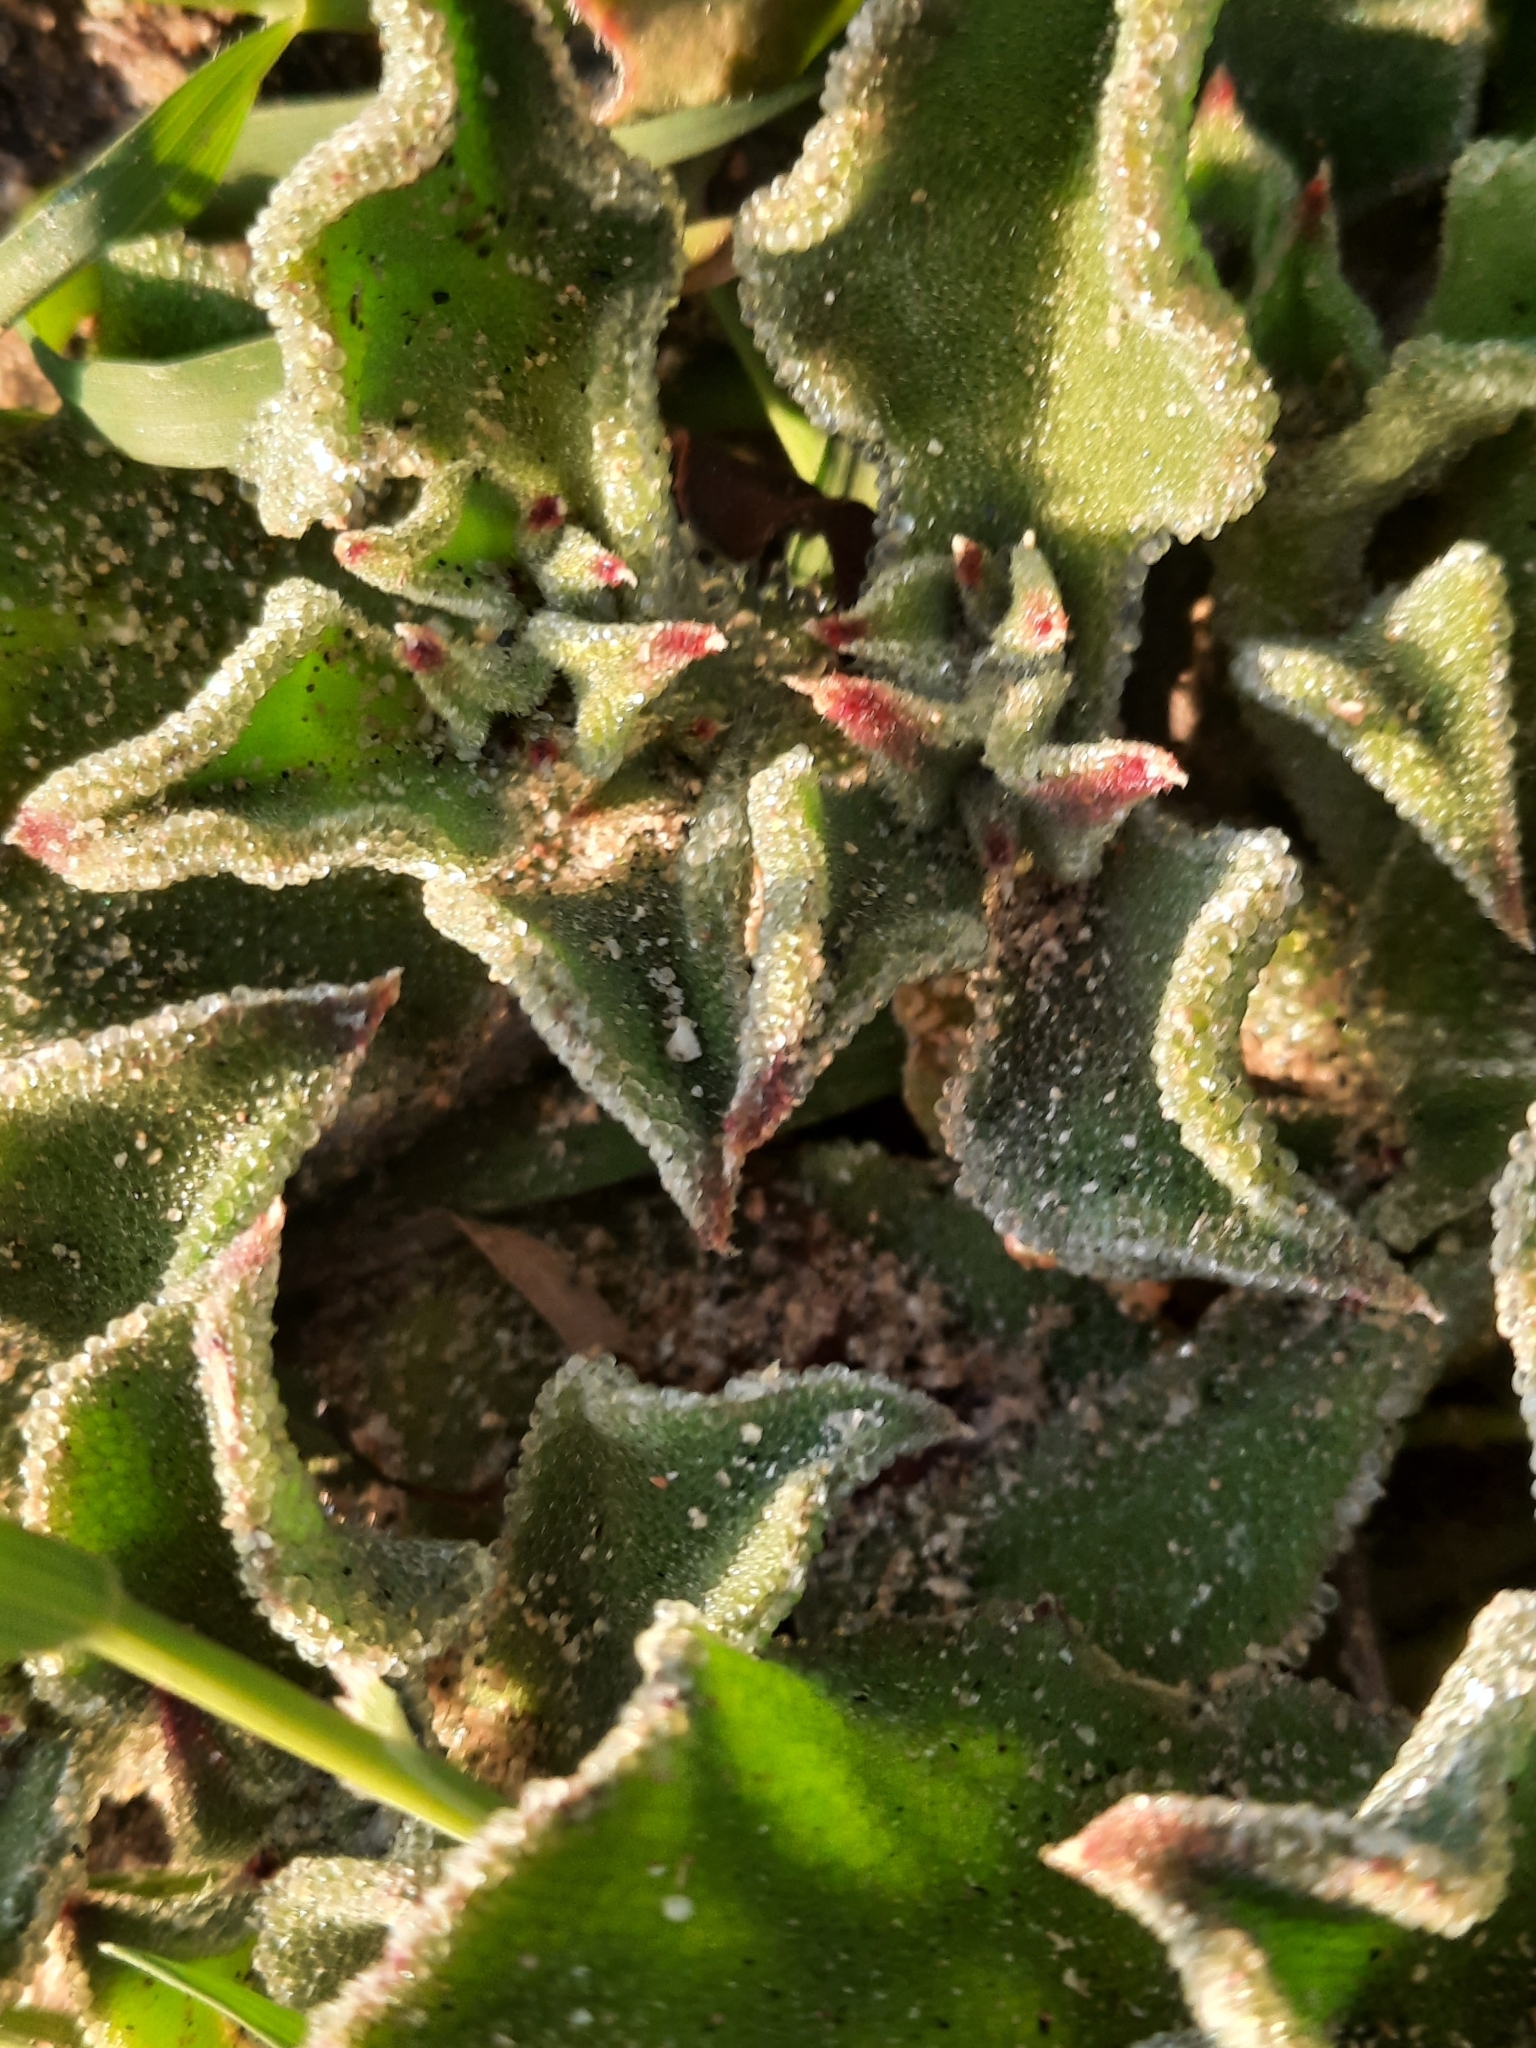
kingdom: Plantae
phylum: Tracheophyta
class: Magnoliopsida
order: Caryophyllales
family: Aizoaceae
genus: Mesembryanthemum
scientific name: Mesembryanthemum crystallinum
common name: Common iceplant
